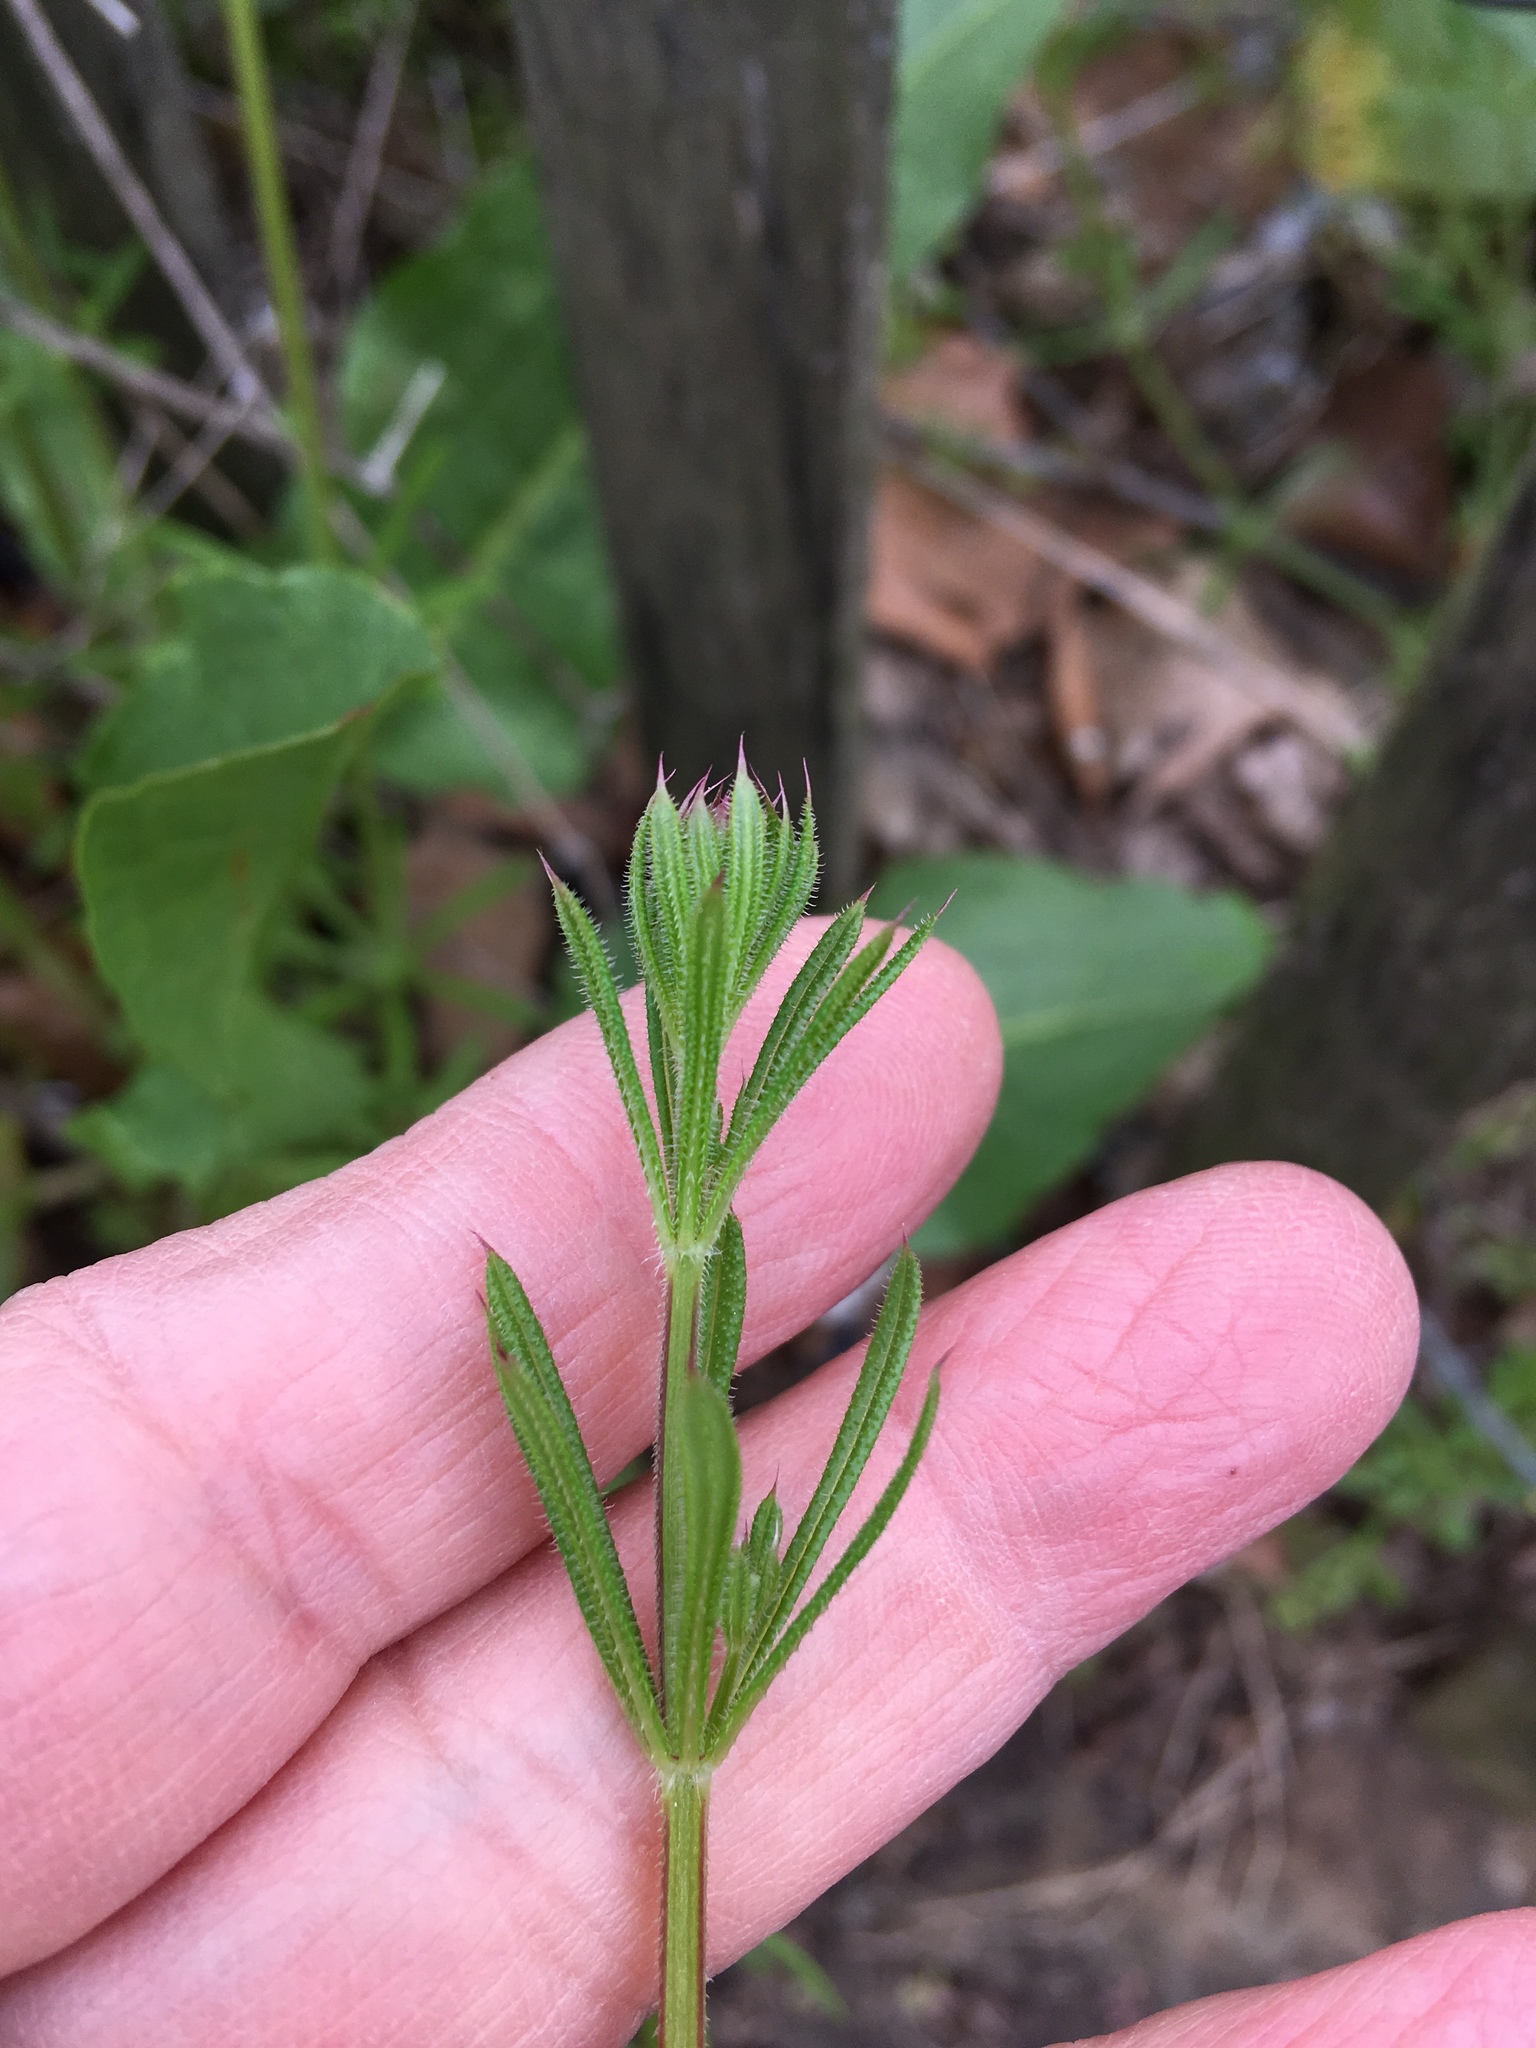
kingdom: Plantae
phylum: Tracheophyta
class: Magnoliopsida
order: Gentianales
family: Rubiaceae
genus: Galium
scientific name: Galium aparine
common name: Cleavers
